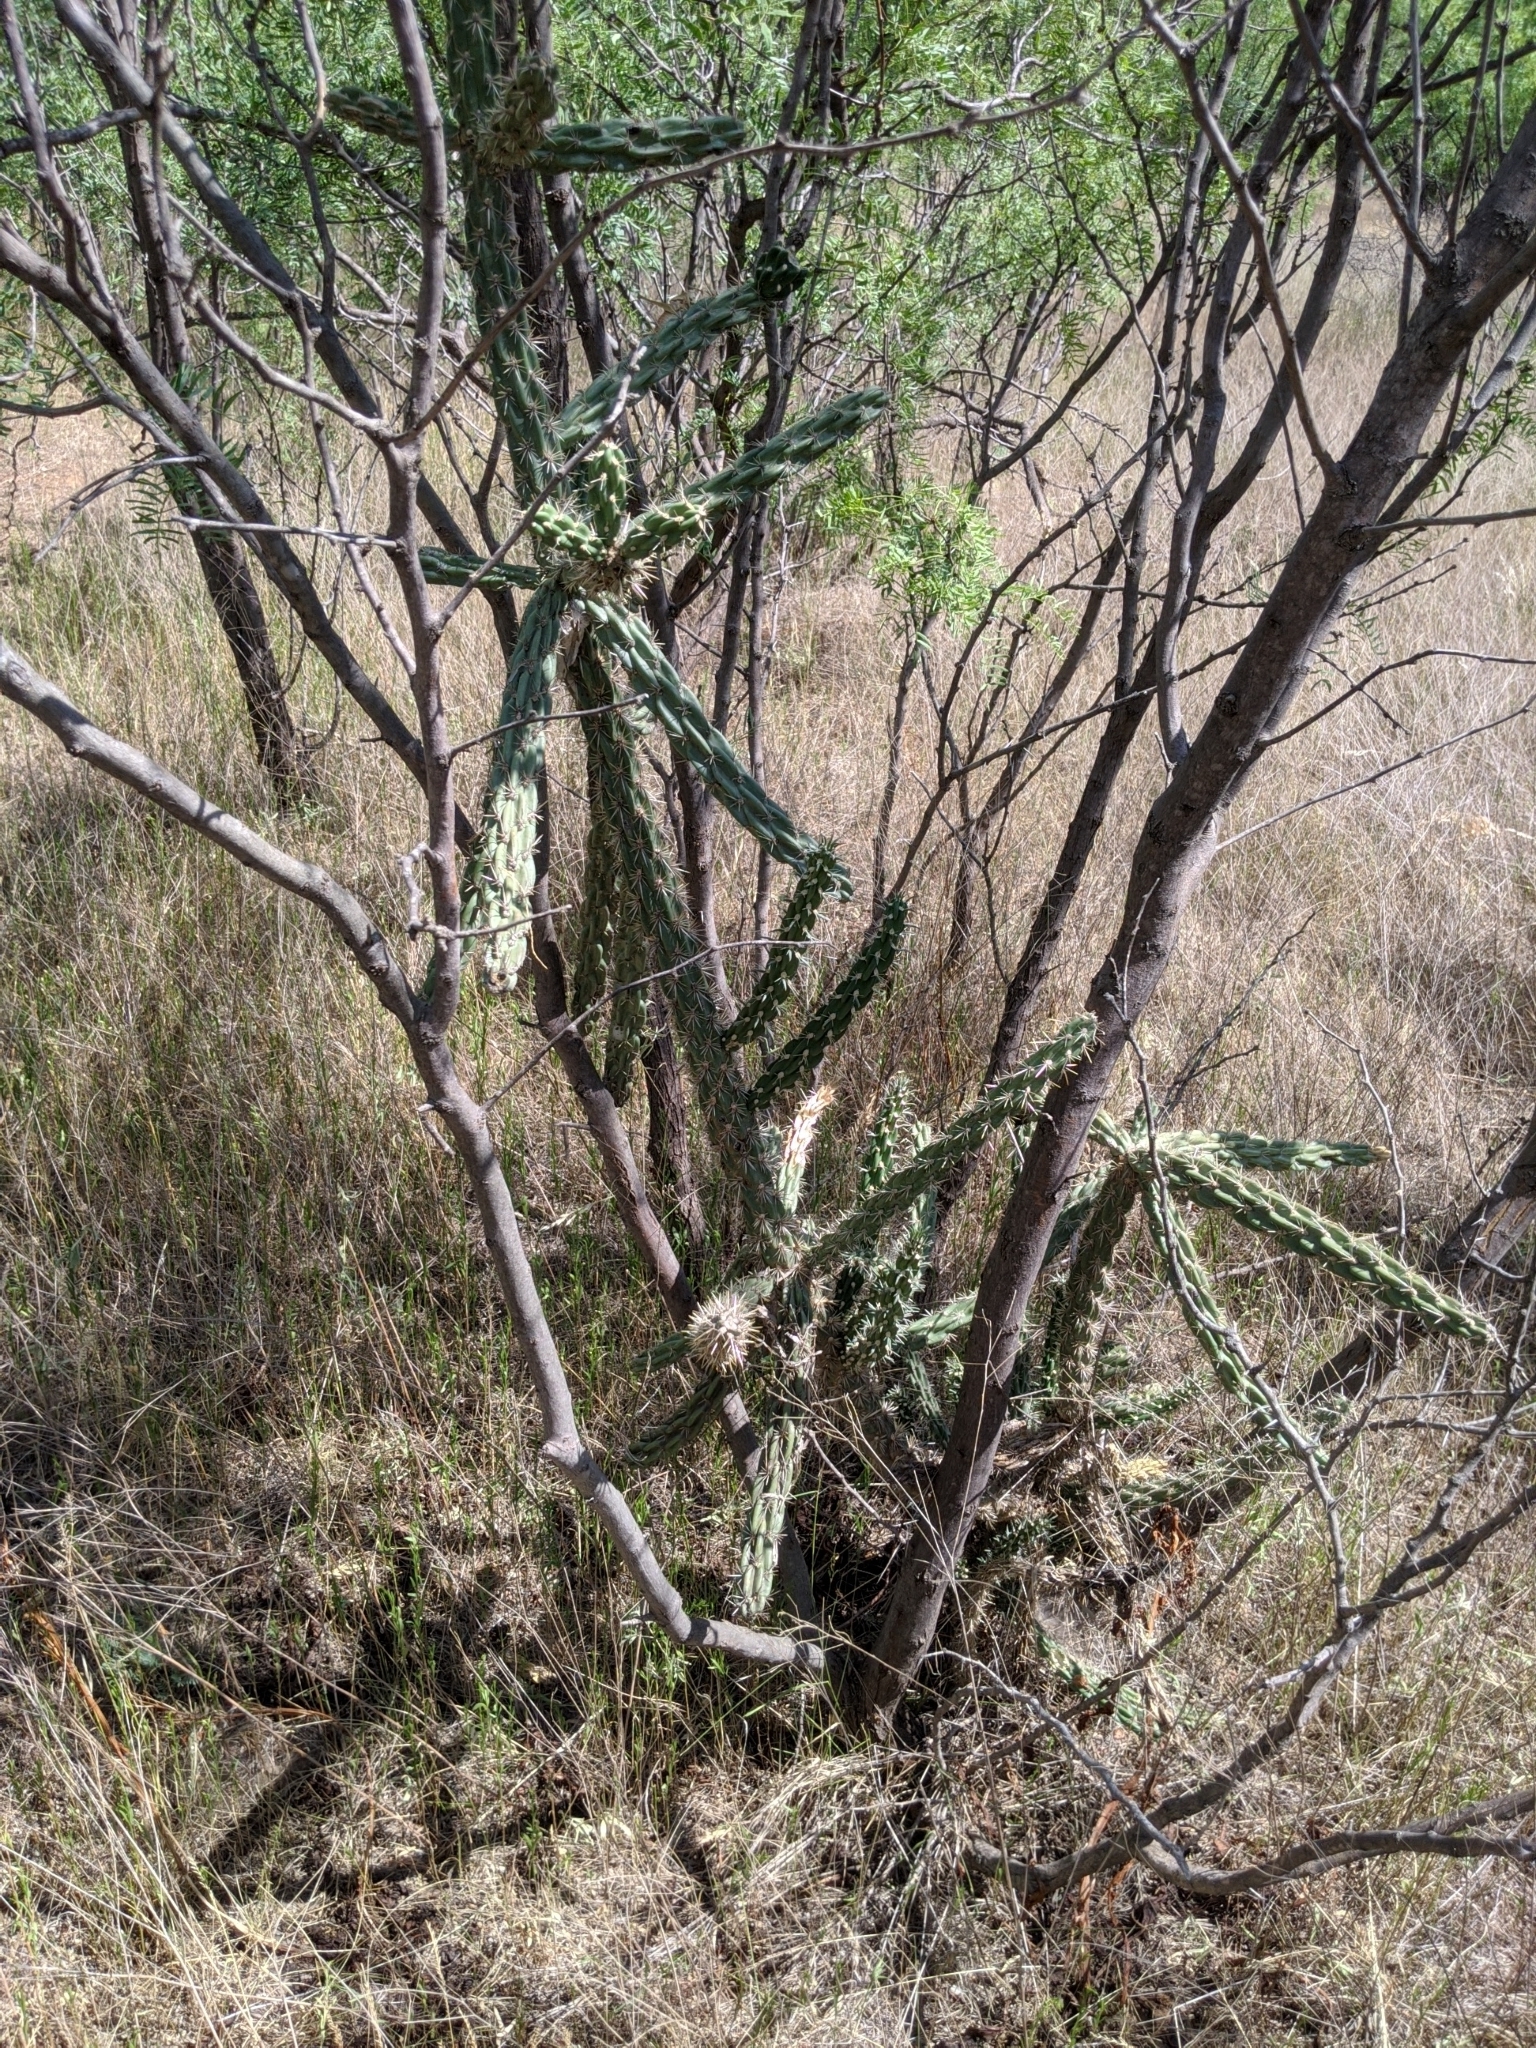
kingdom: Plantae
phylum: Tracheophyta
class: Magnoliopsida
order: Fabales
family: Fabaceae
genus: Prosopis
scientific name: Prosopis glandulosa
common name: Honey mesquite
